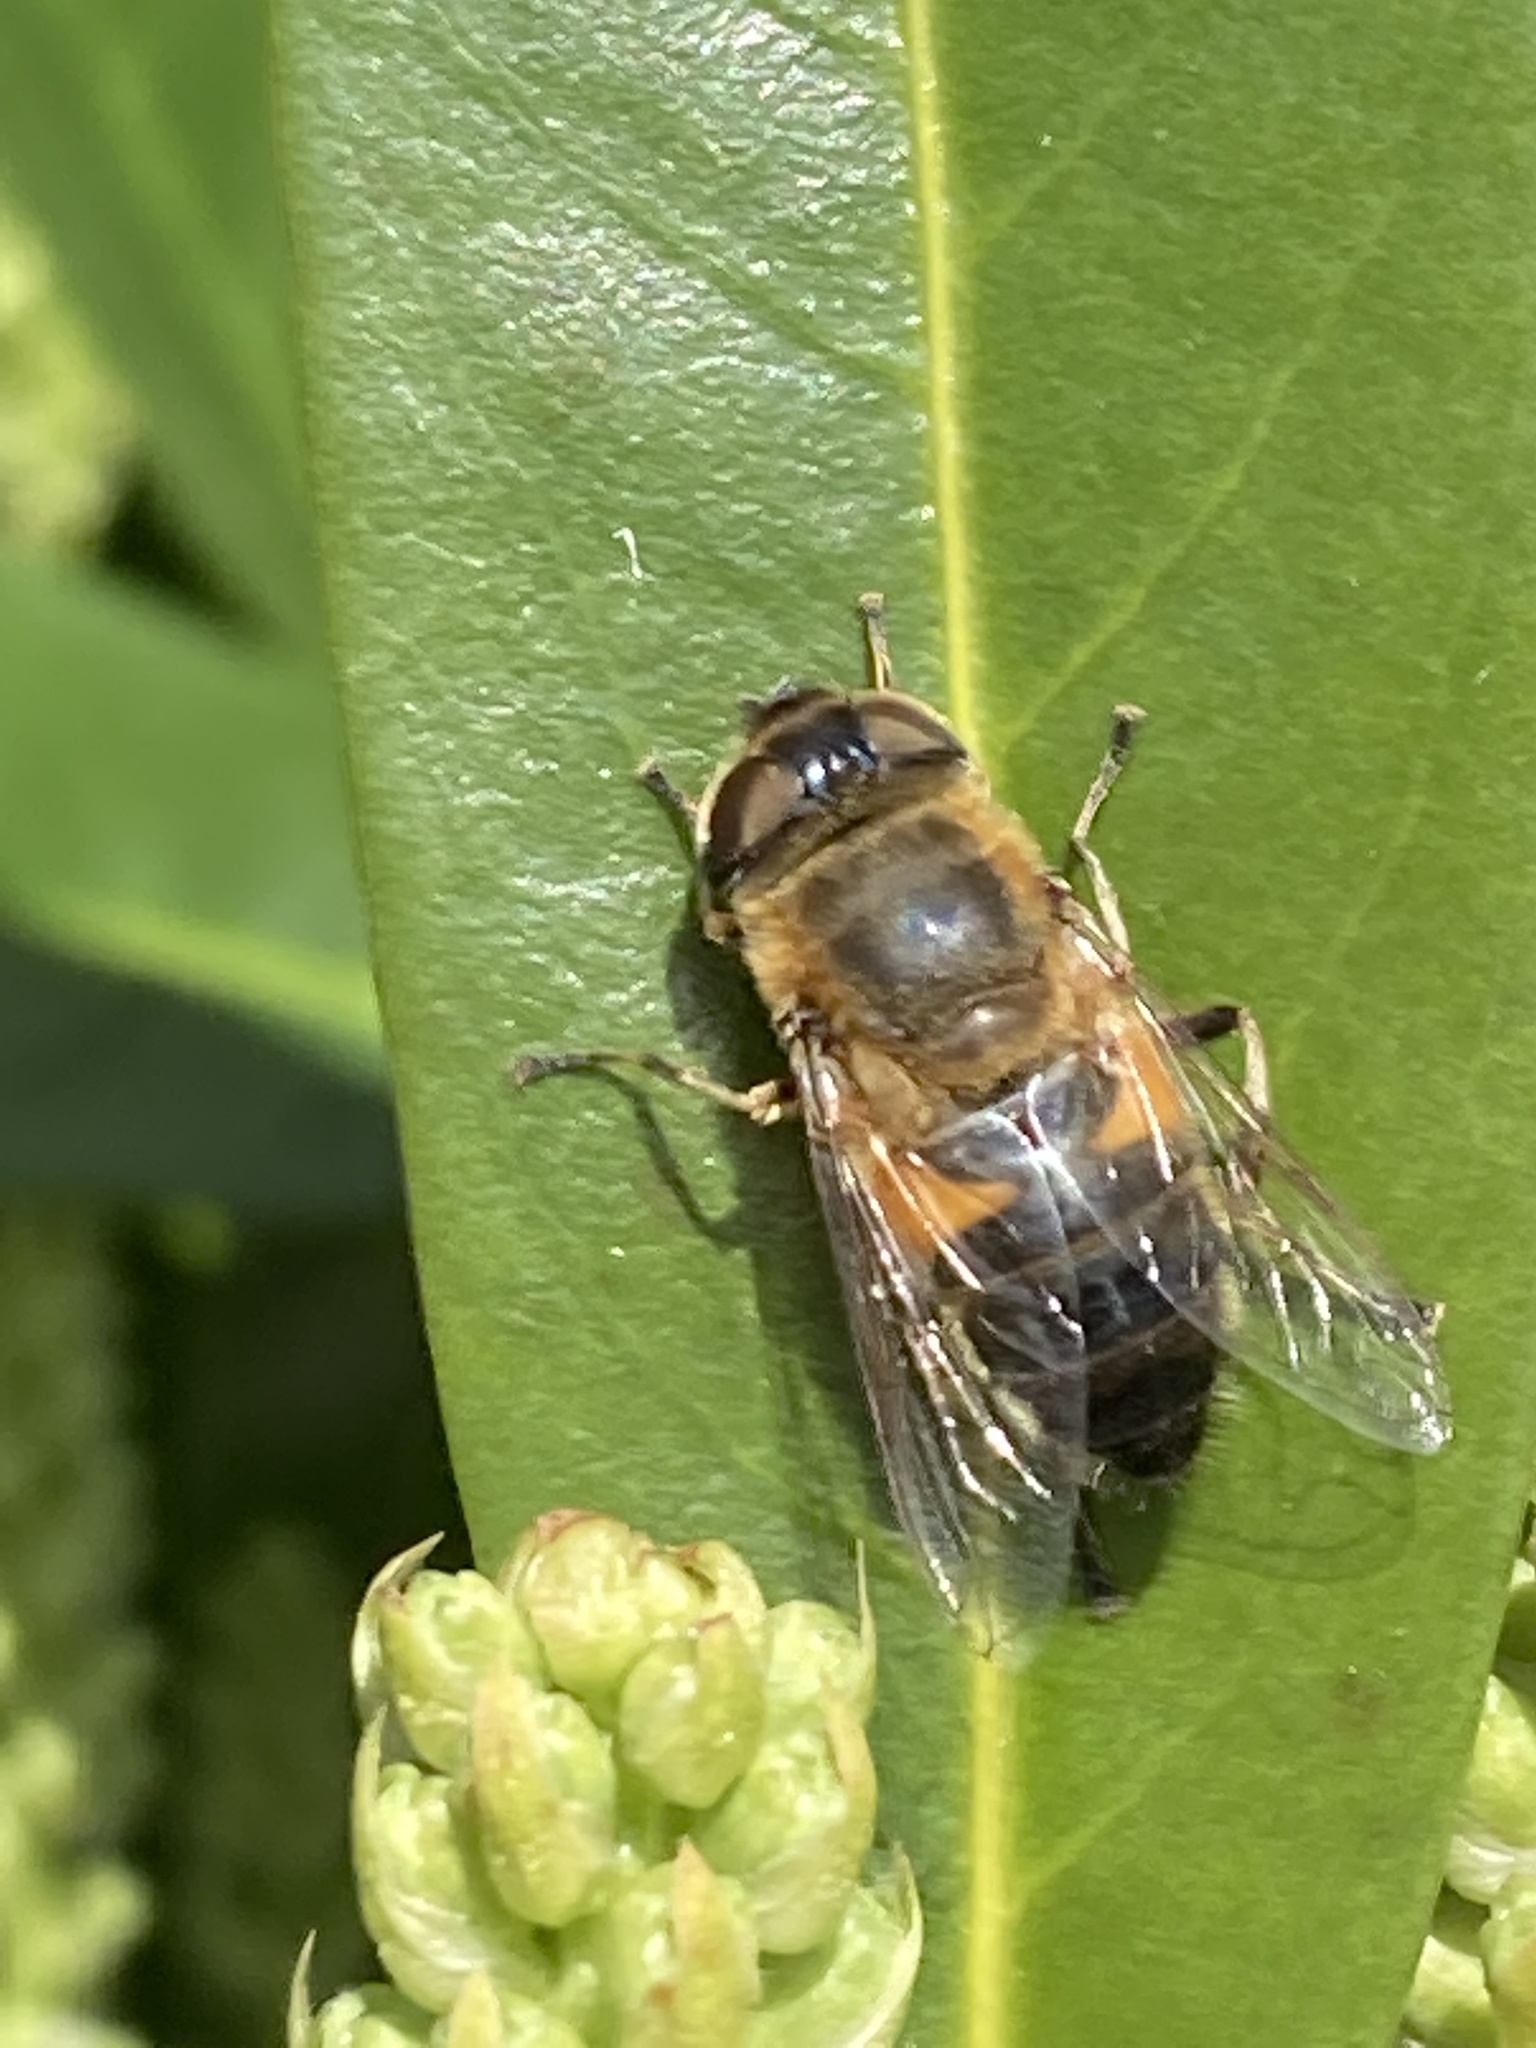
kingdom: Animalia
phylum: Arthropoda
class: Insecta
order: Diptera
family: Syrphidae
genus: Eristalis
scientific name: Eristalis pertinax
